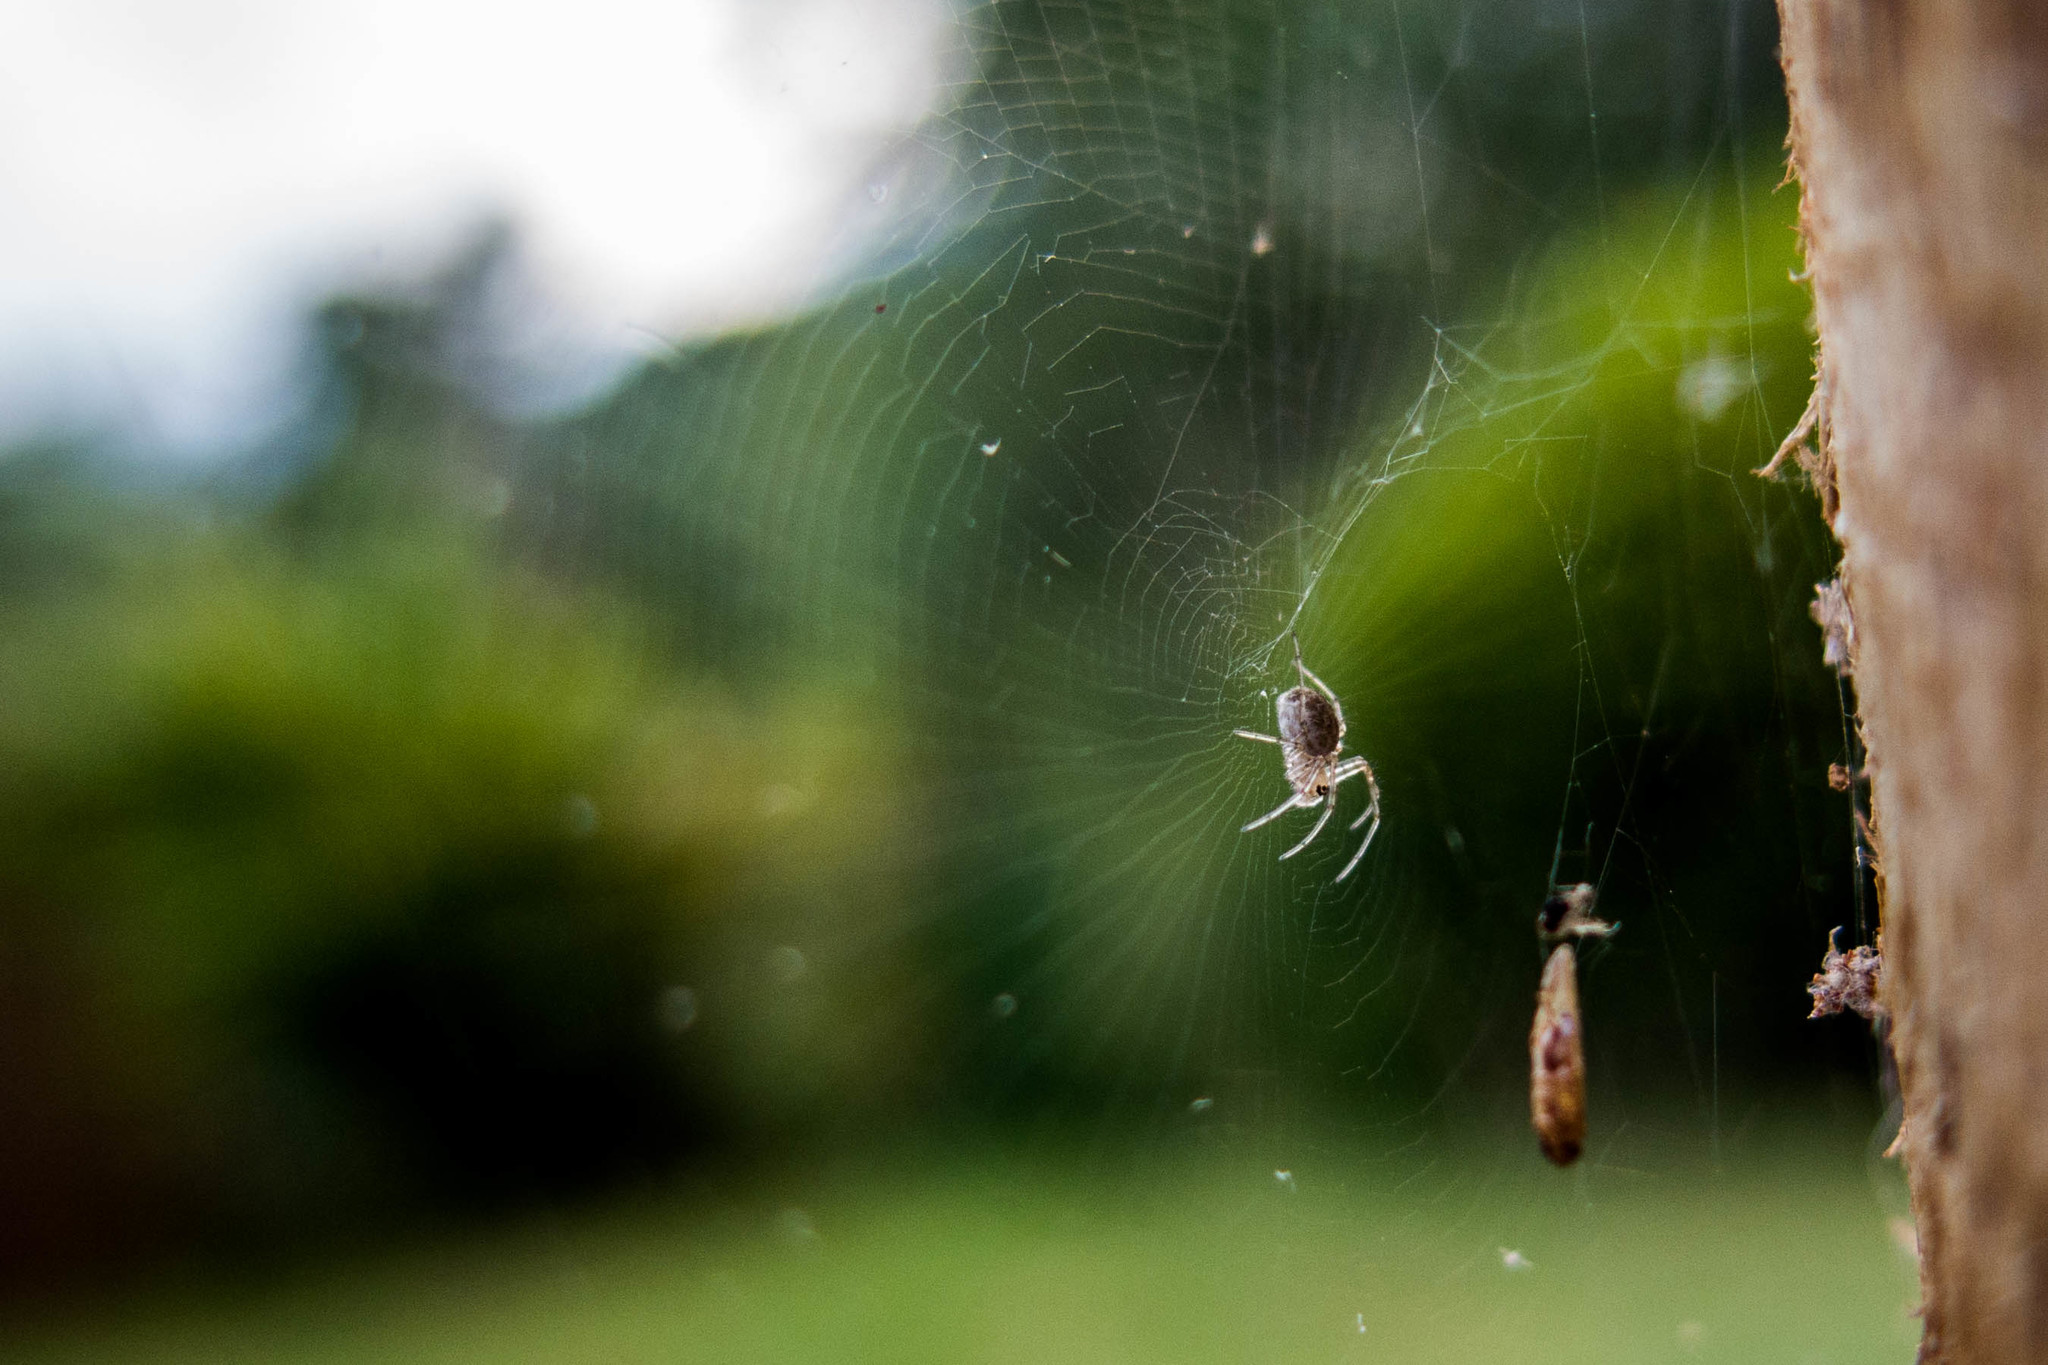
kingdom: Animalia
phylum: Arthropoda
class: Arachnida
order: Araneae
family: Araneidae
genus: Nephilingis
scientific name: Nephilingis cruentata
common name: African hermit spider
